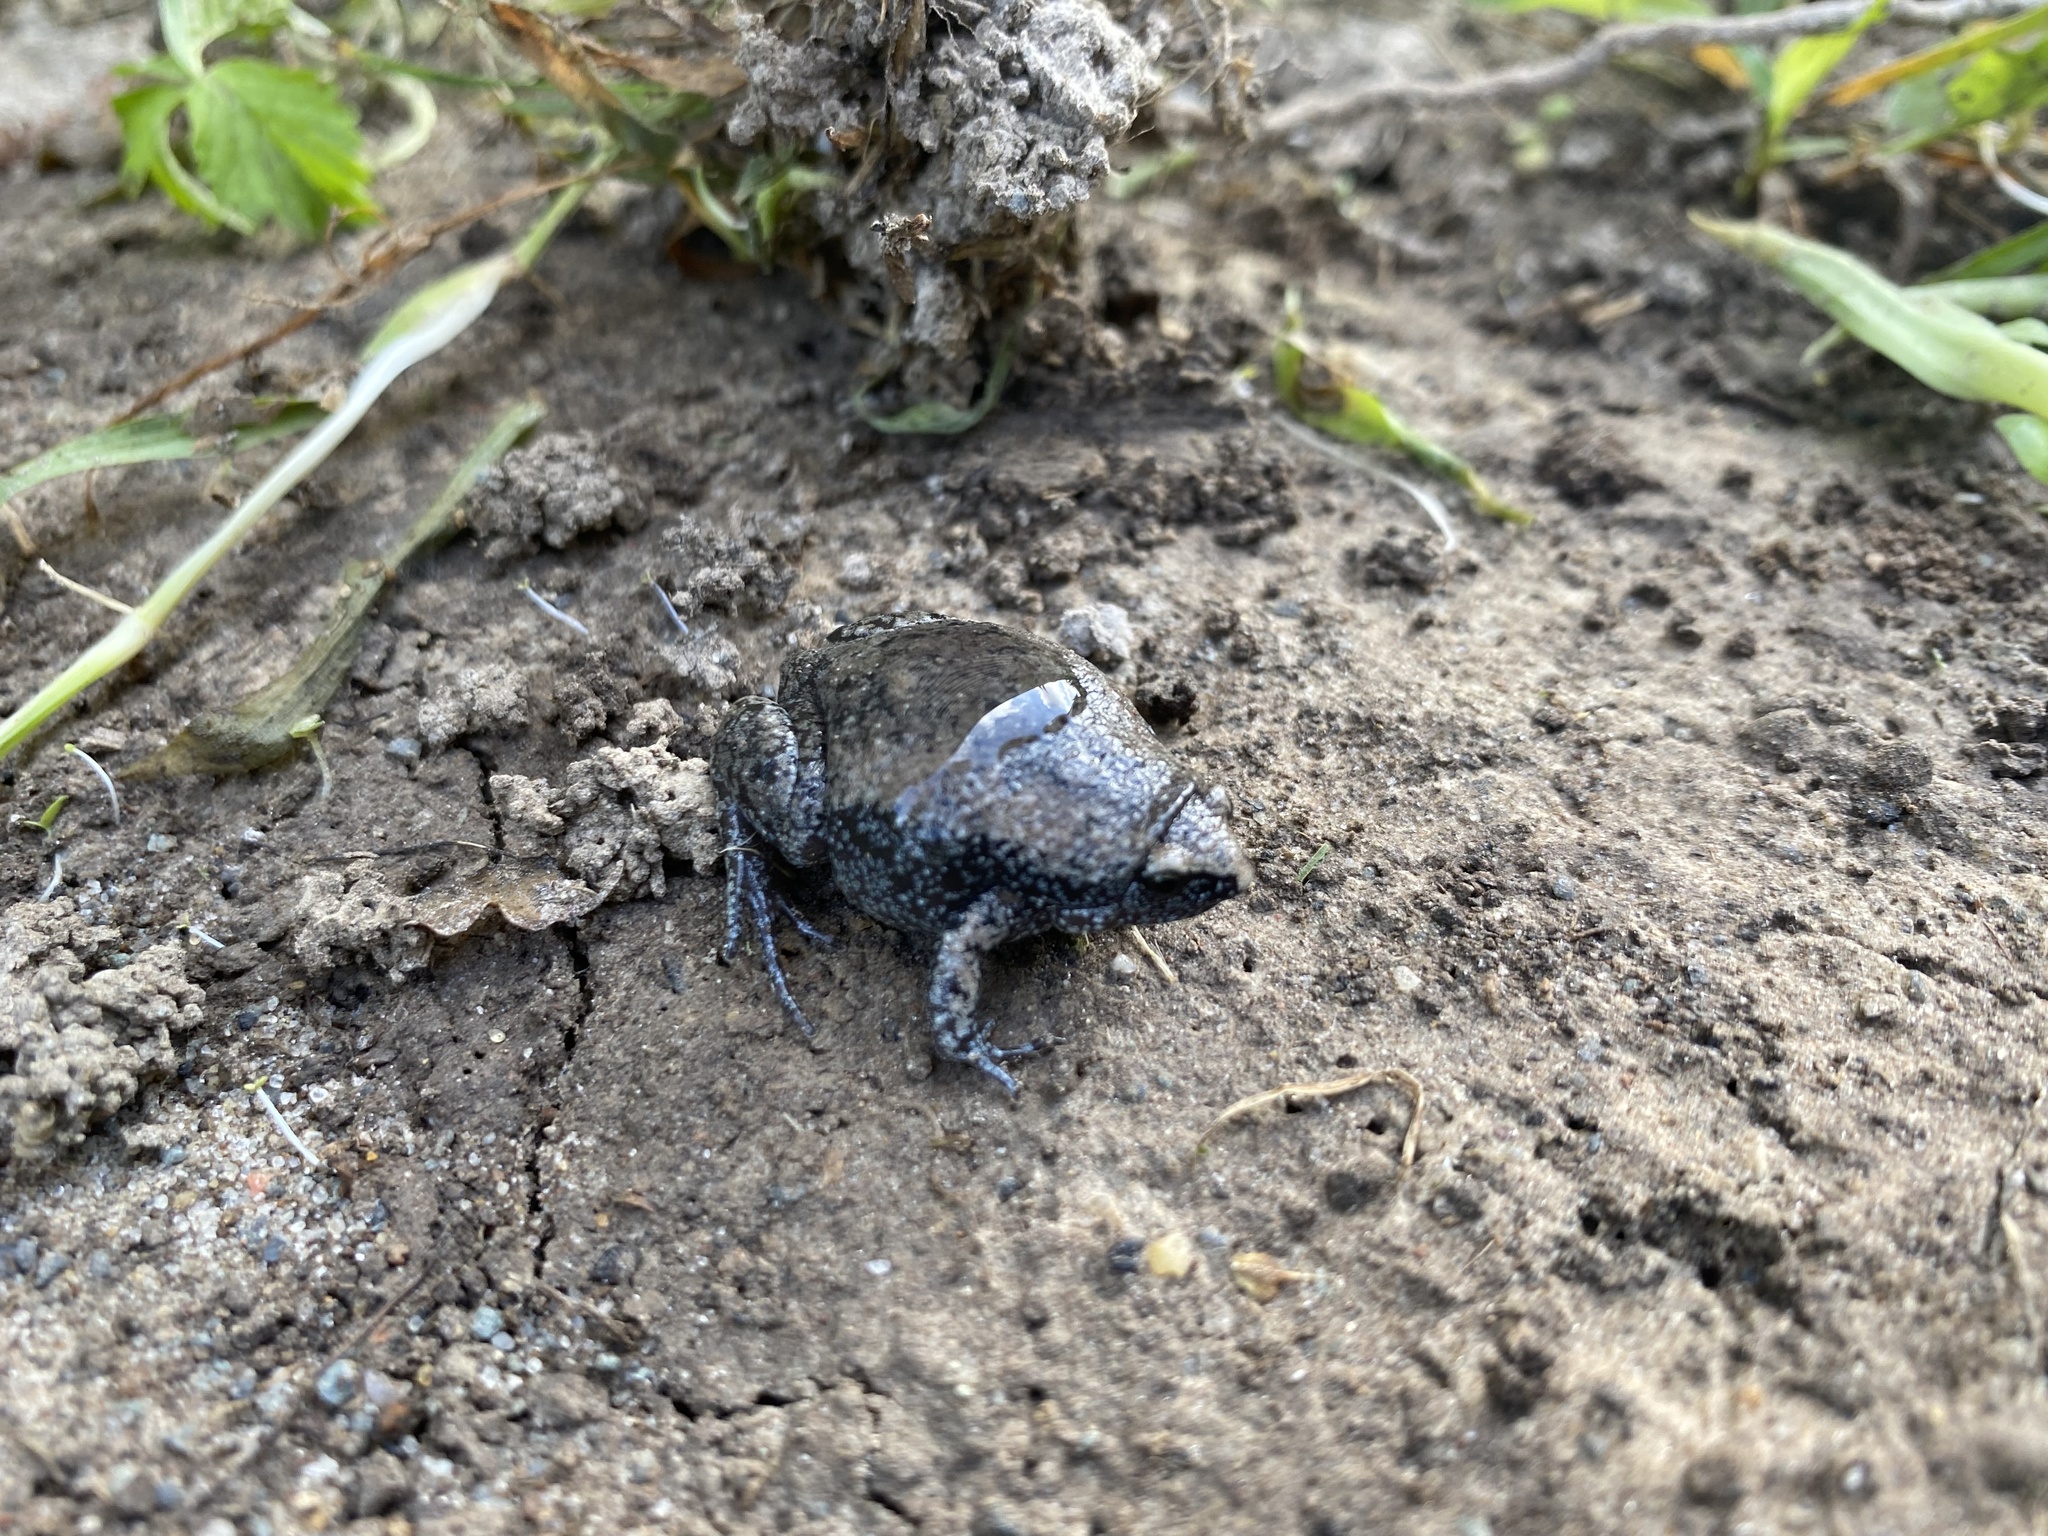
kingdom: Animalia
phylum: Chordata
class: Amphibia
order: Anura
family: Microhylidae
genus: Gastrophryne
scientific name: Gastrophryne carolinensis
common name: Eastern narrowmouth toad
